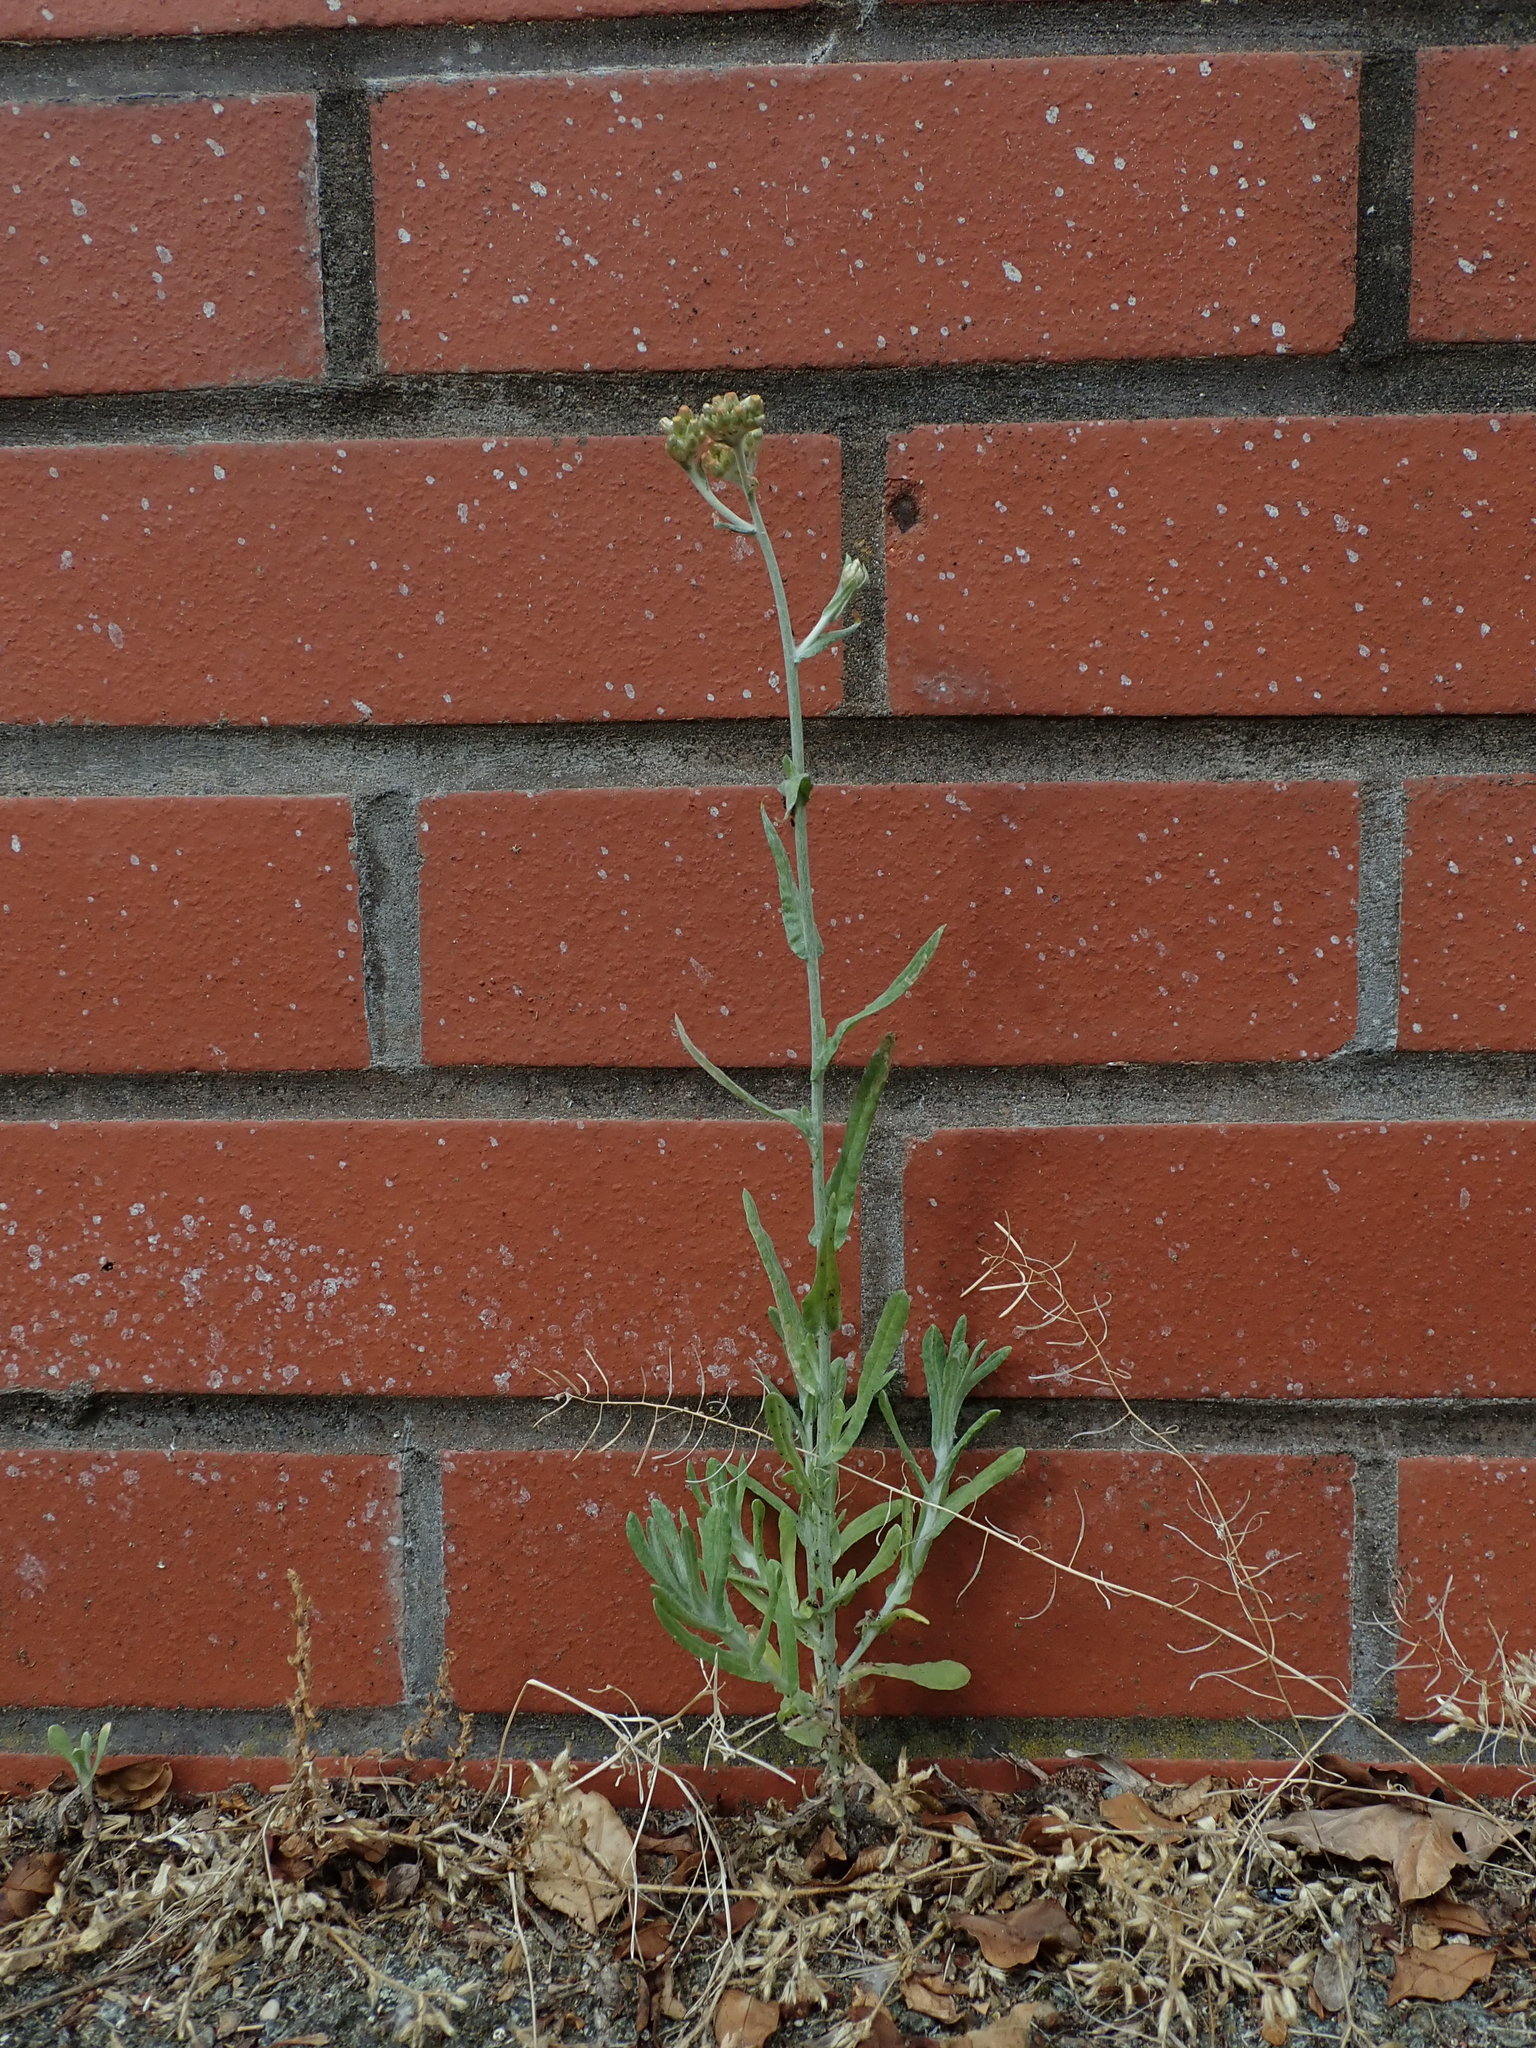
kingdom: Plantae
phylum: Tracheophyta
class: Magnoliopsida
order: Asterales
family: Asteraceae
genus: Helichrysum
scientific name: Helichrysum luteoalbum
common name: Daisy
